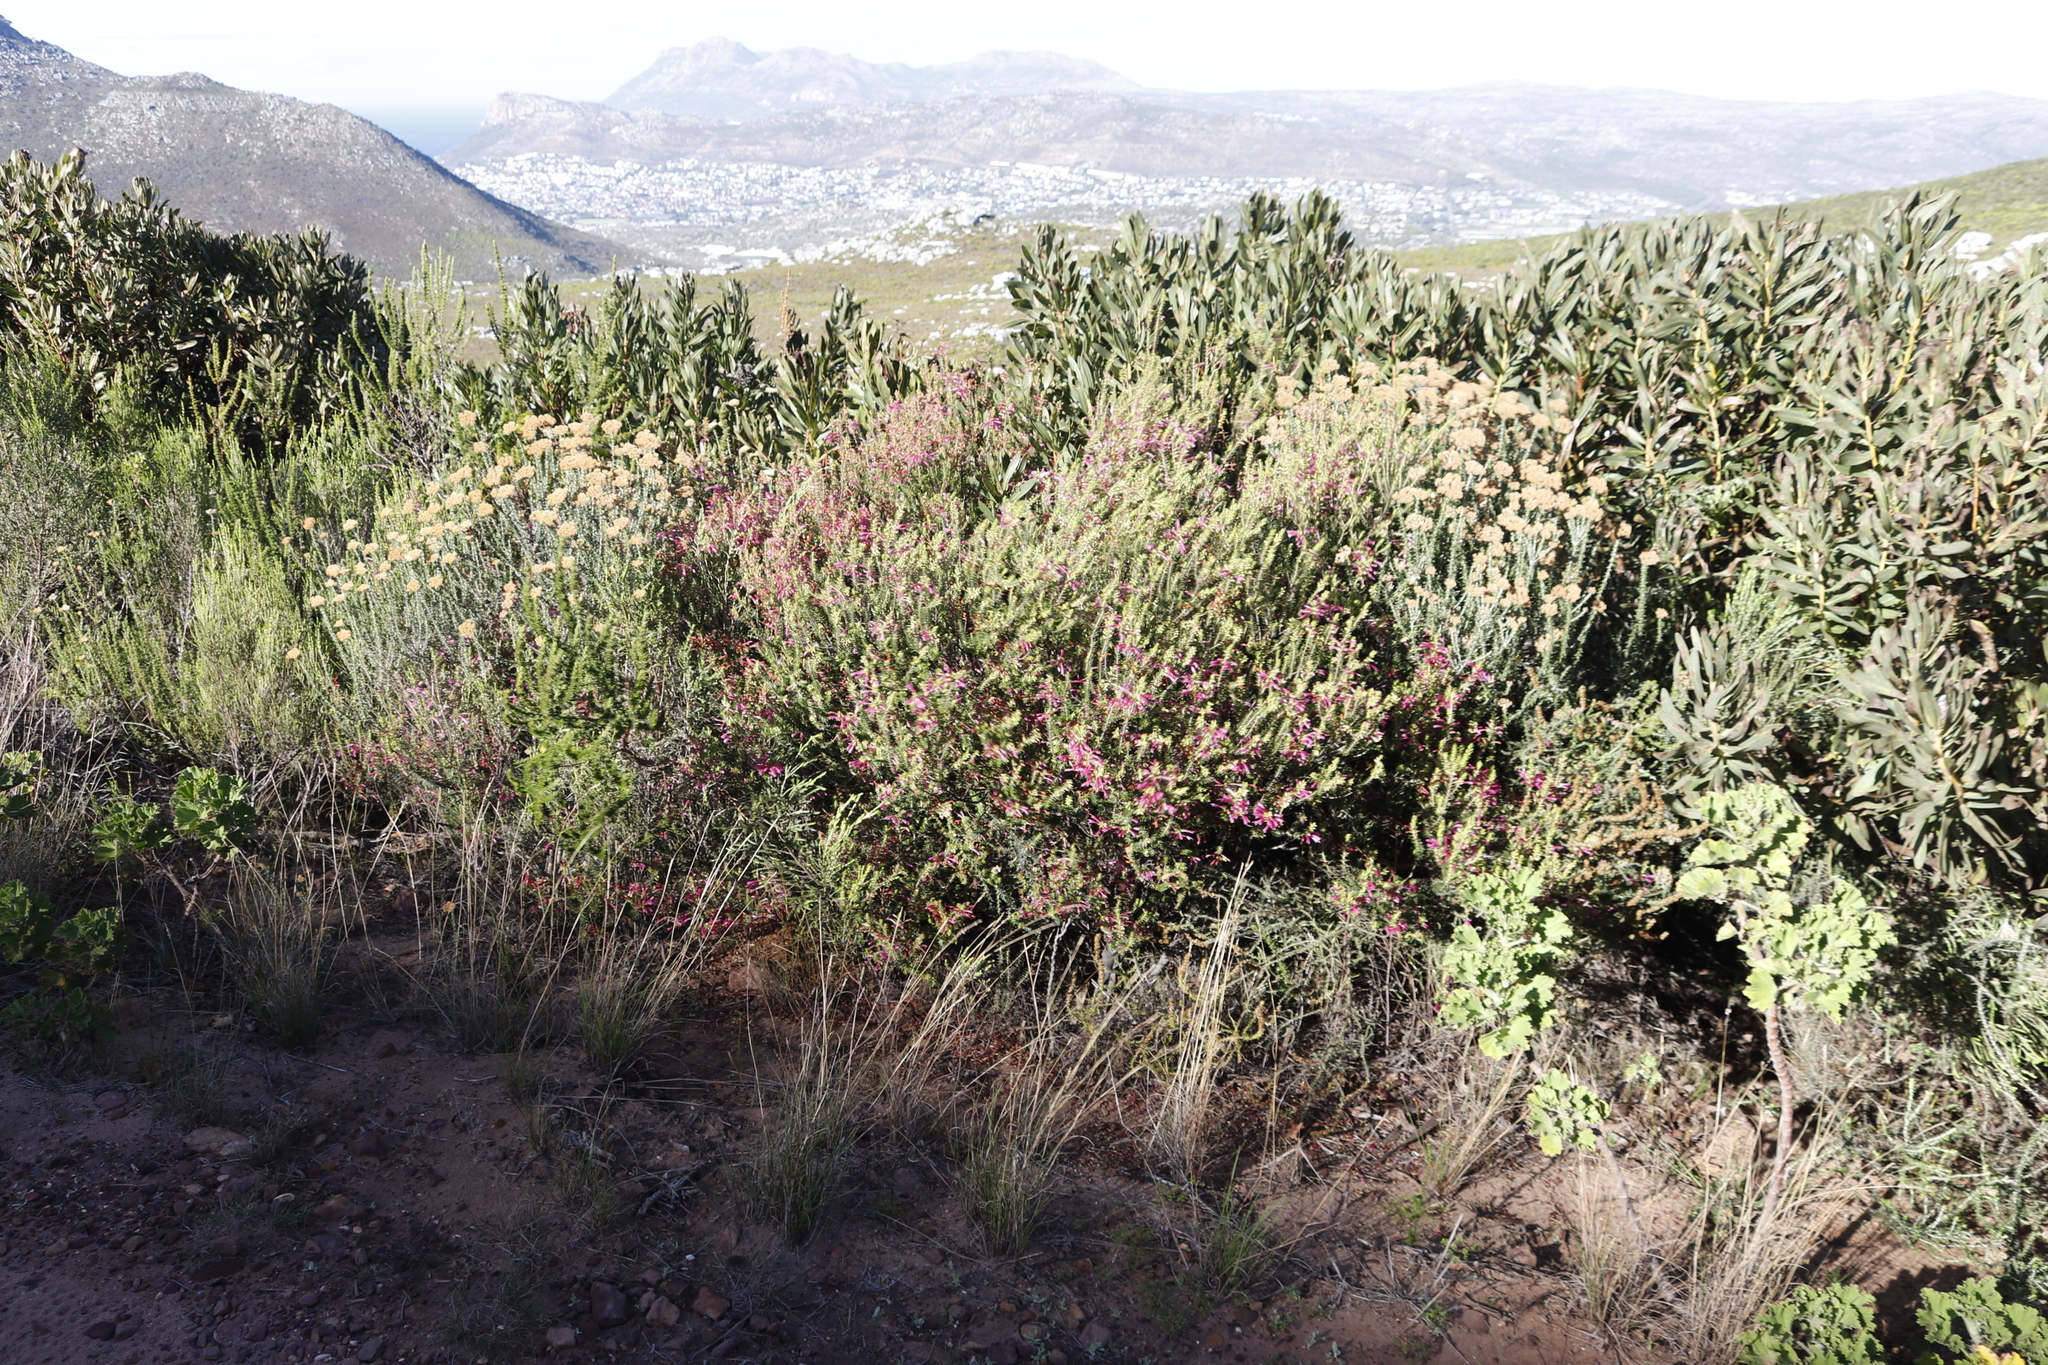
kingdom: Plantae
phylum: Tracheophyta
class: Magnoliopsida
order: Ericales
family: Ericaceae
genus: Erica
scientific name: Erica abietina
